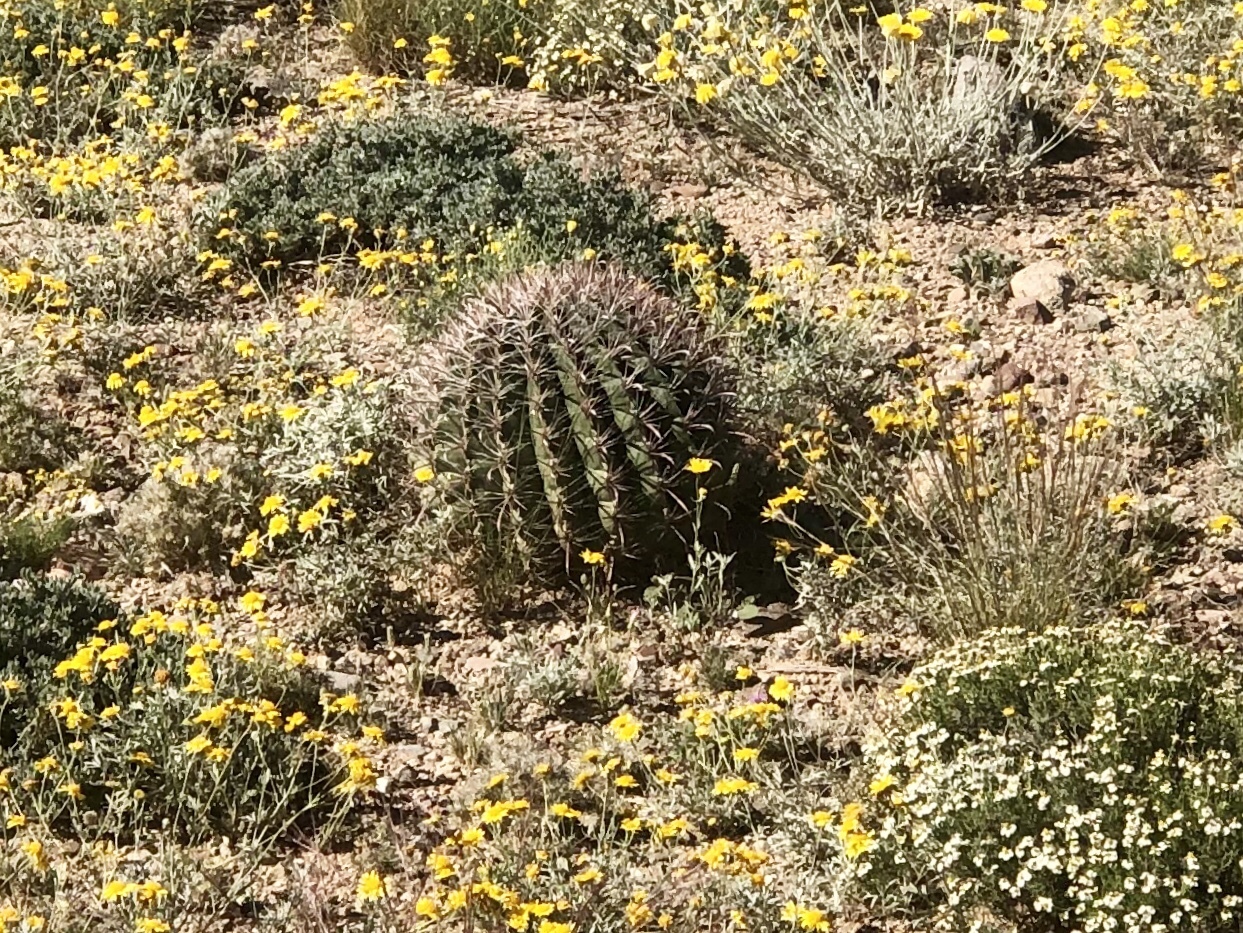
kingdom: Plantae
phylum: Tracheophyta
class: Magnoliopsida
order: Caryophyllales
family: Cactaceae
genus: Ferocactus
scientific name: Ferocactus wislizeni
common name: Candy barrel cactus
